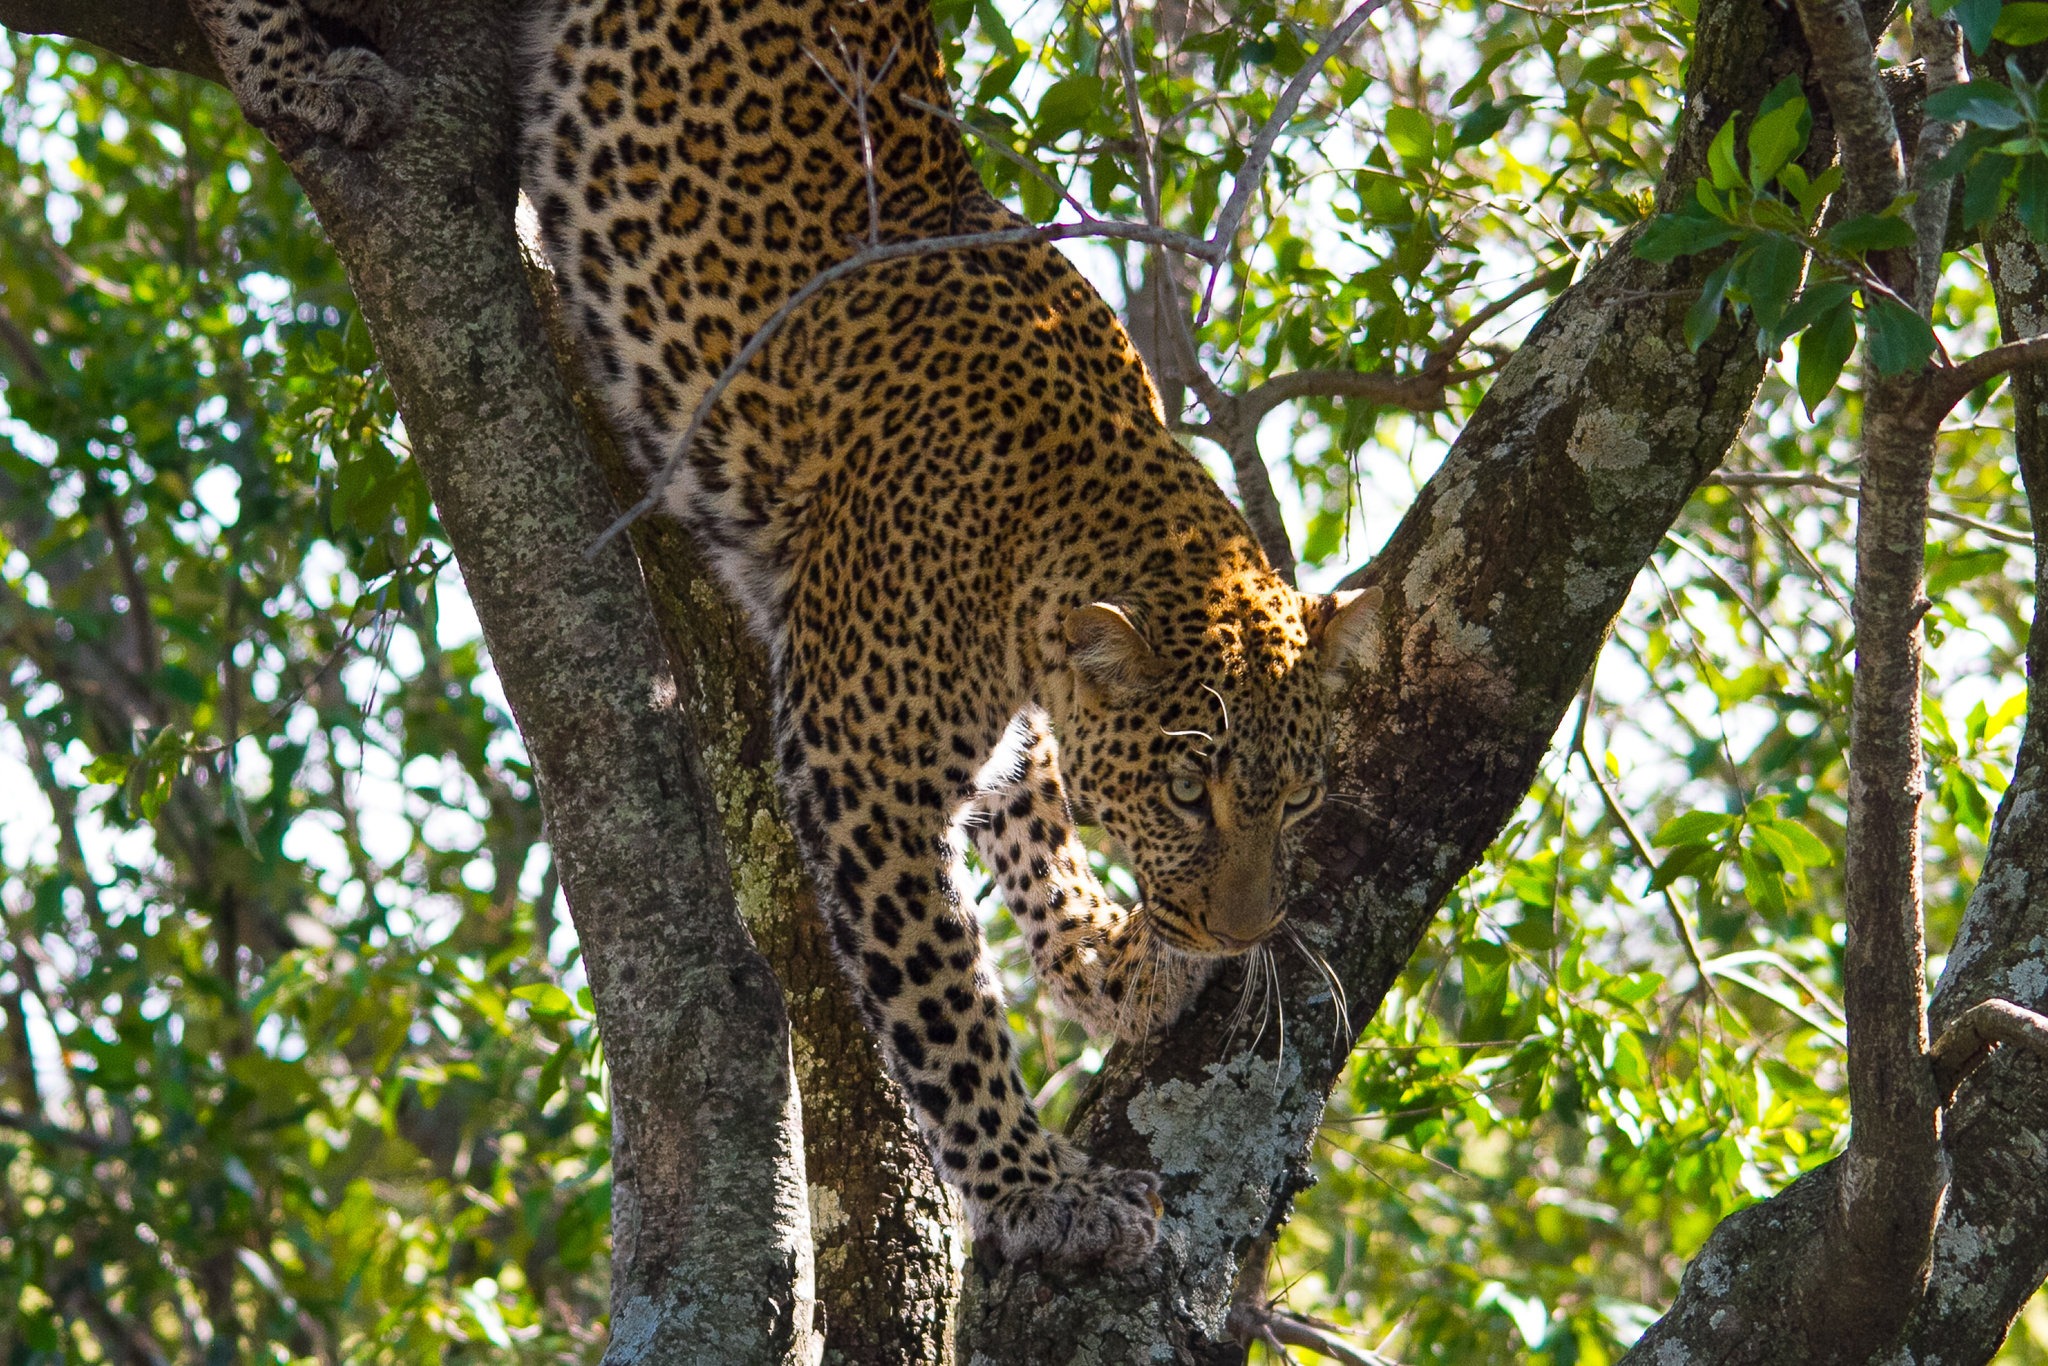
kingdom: Animalia
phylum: Chordata
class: Mammalia
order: Carnivora
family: Felidae
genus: Panthera
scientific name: Panthera pardus
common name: Leopard
